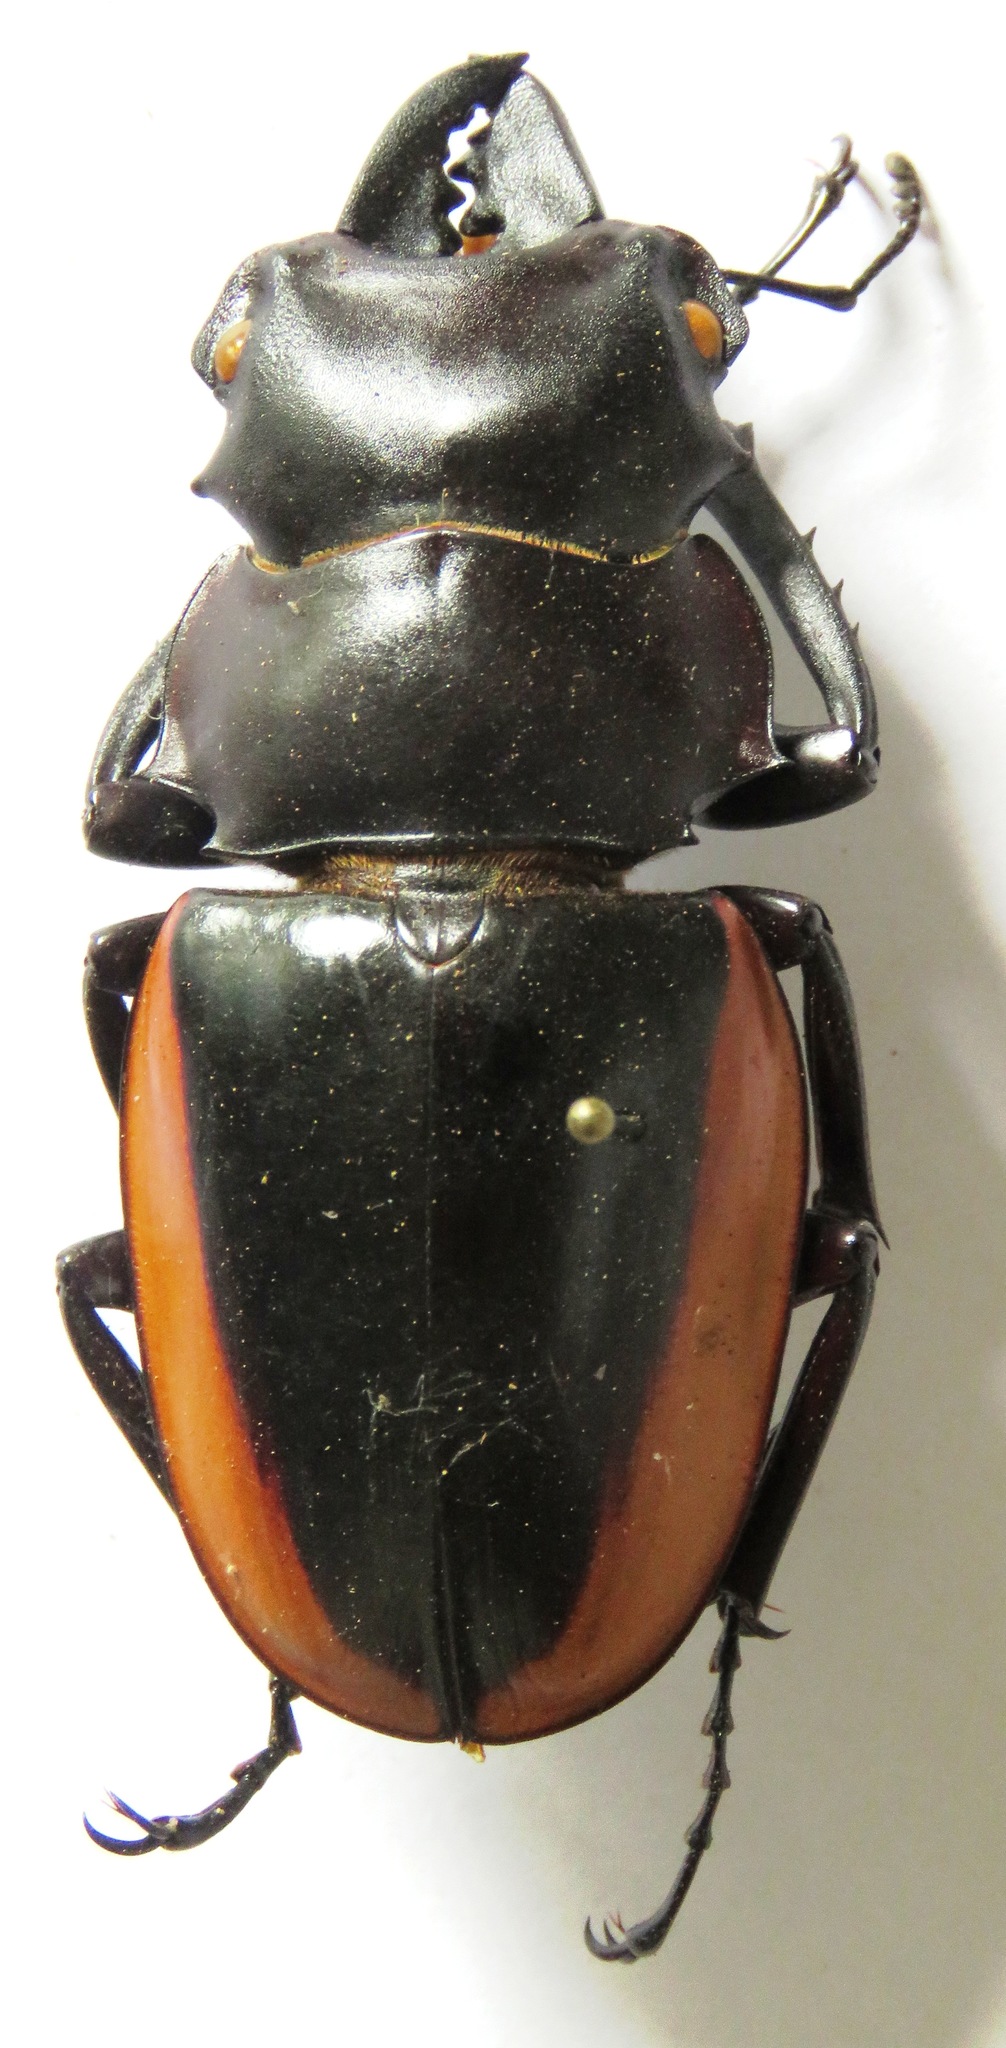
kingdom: Animalia
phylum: Arthropoda
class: Insecta
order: Coleoptera
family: Lucanidae
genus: Odontolabis
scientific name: Odontolabis cuvera
